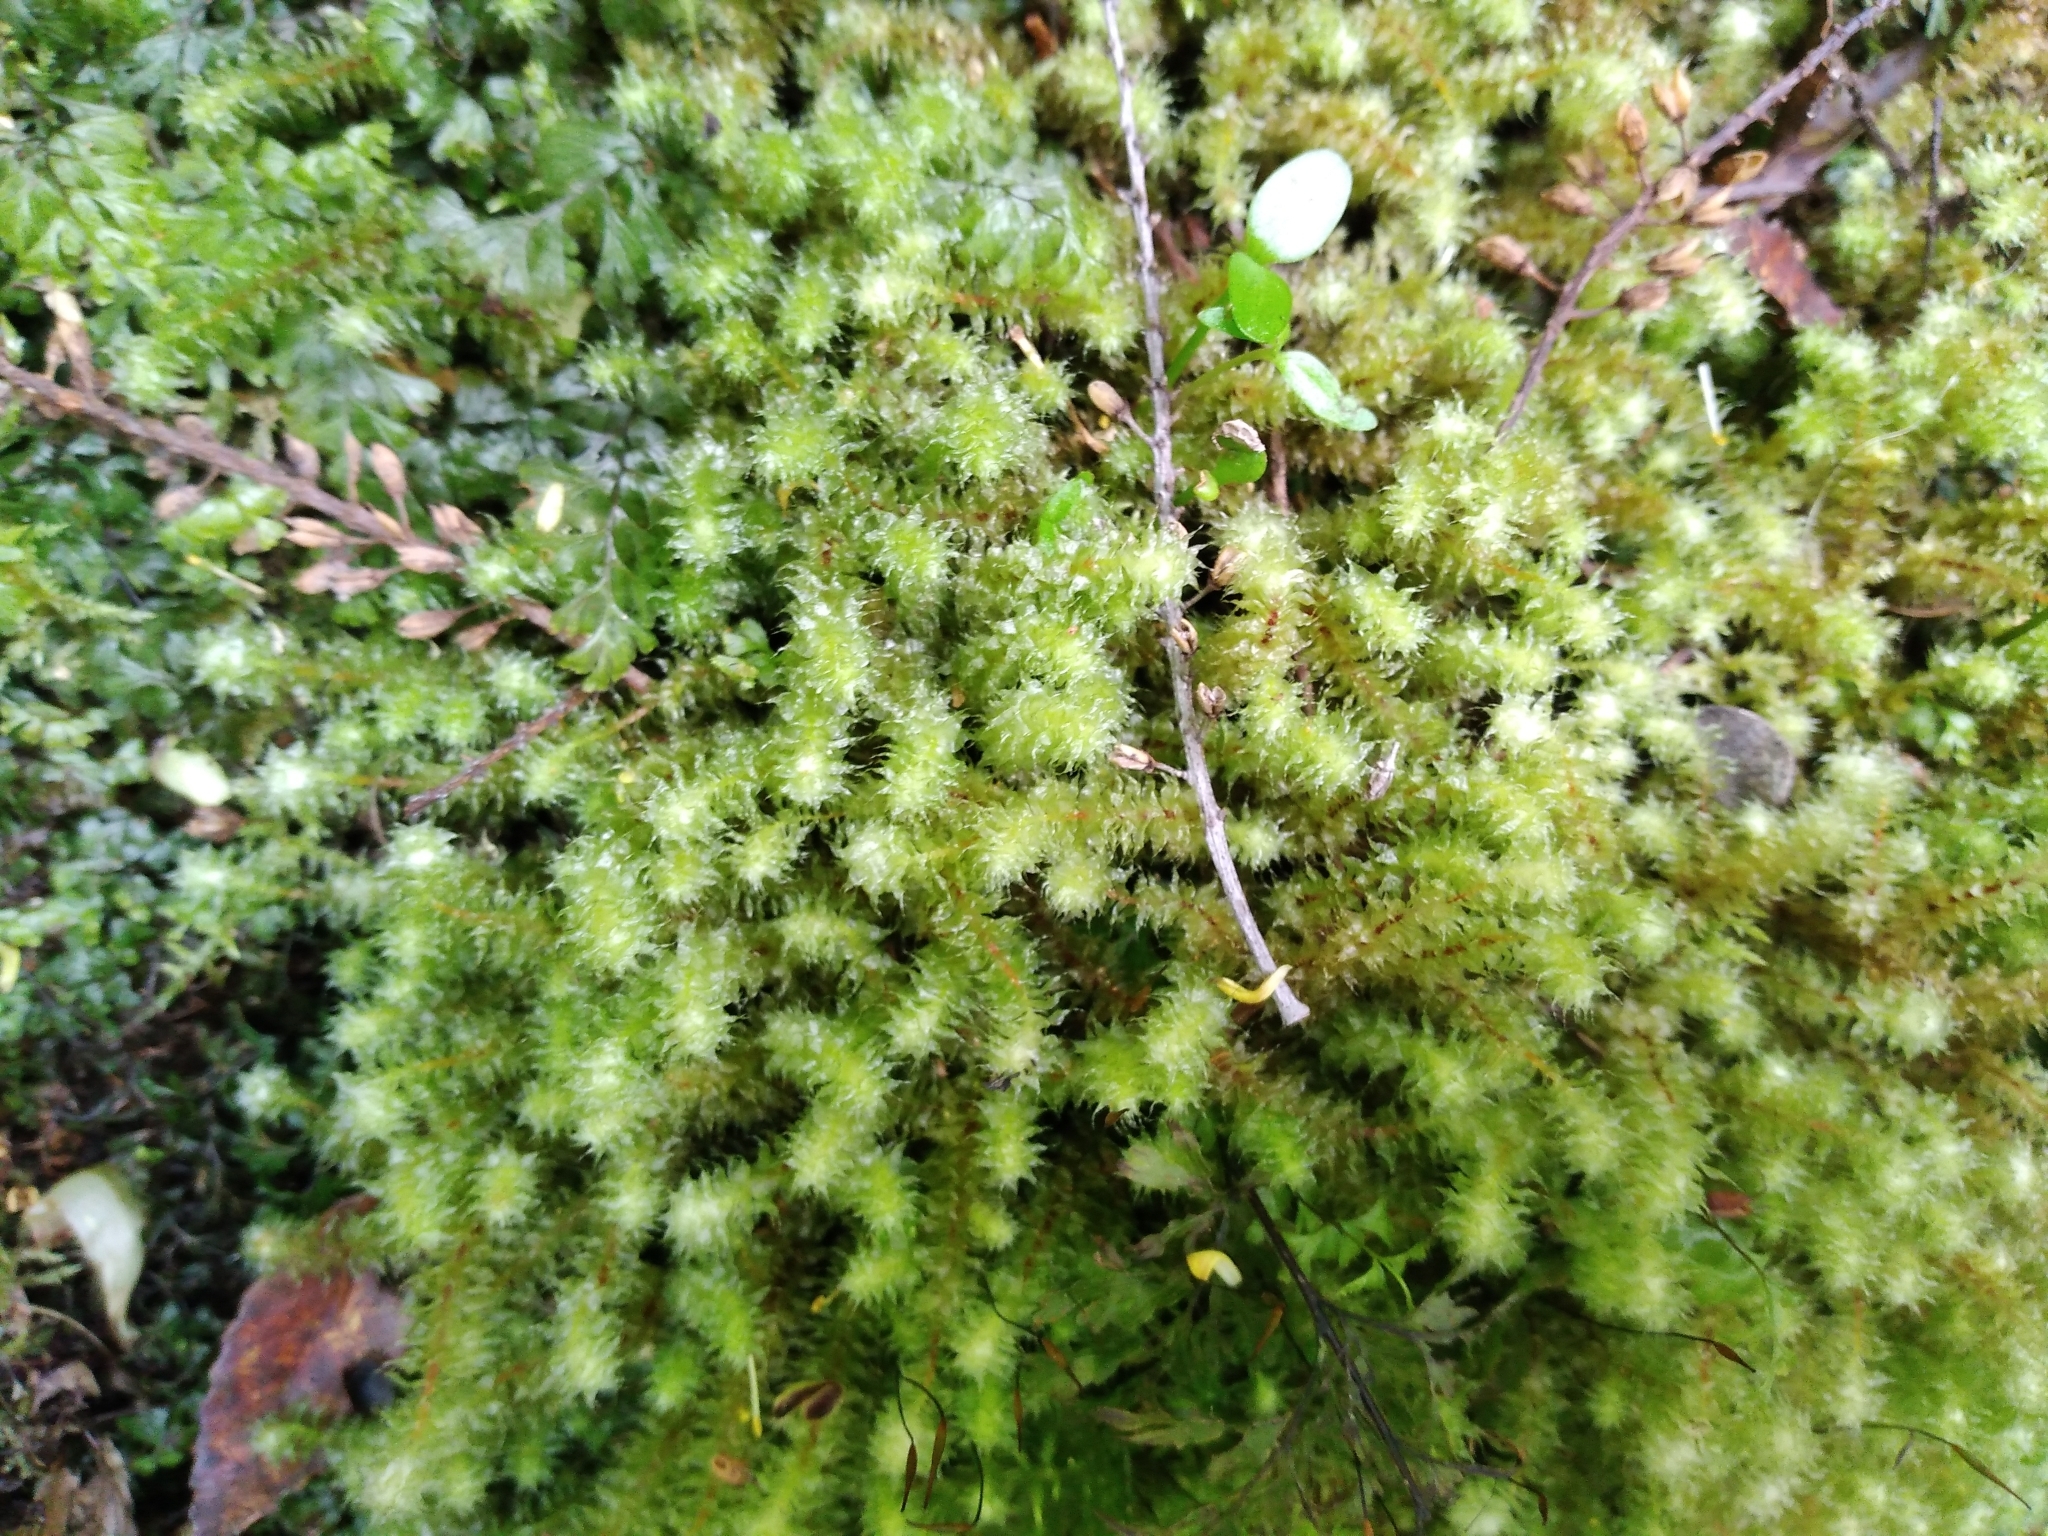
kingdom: Plantae
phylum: Bryophyta
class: Bryopsida
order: Ptychomniales
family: Ptychomniaceae
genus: Ptychomnion
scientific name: Ptychomnion aciculare
